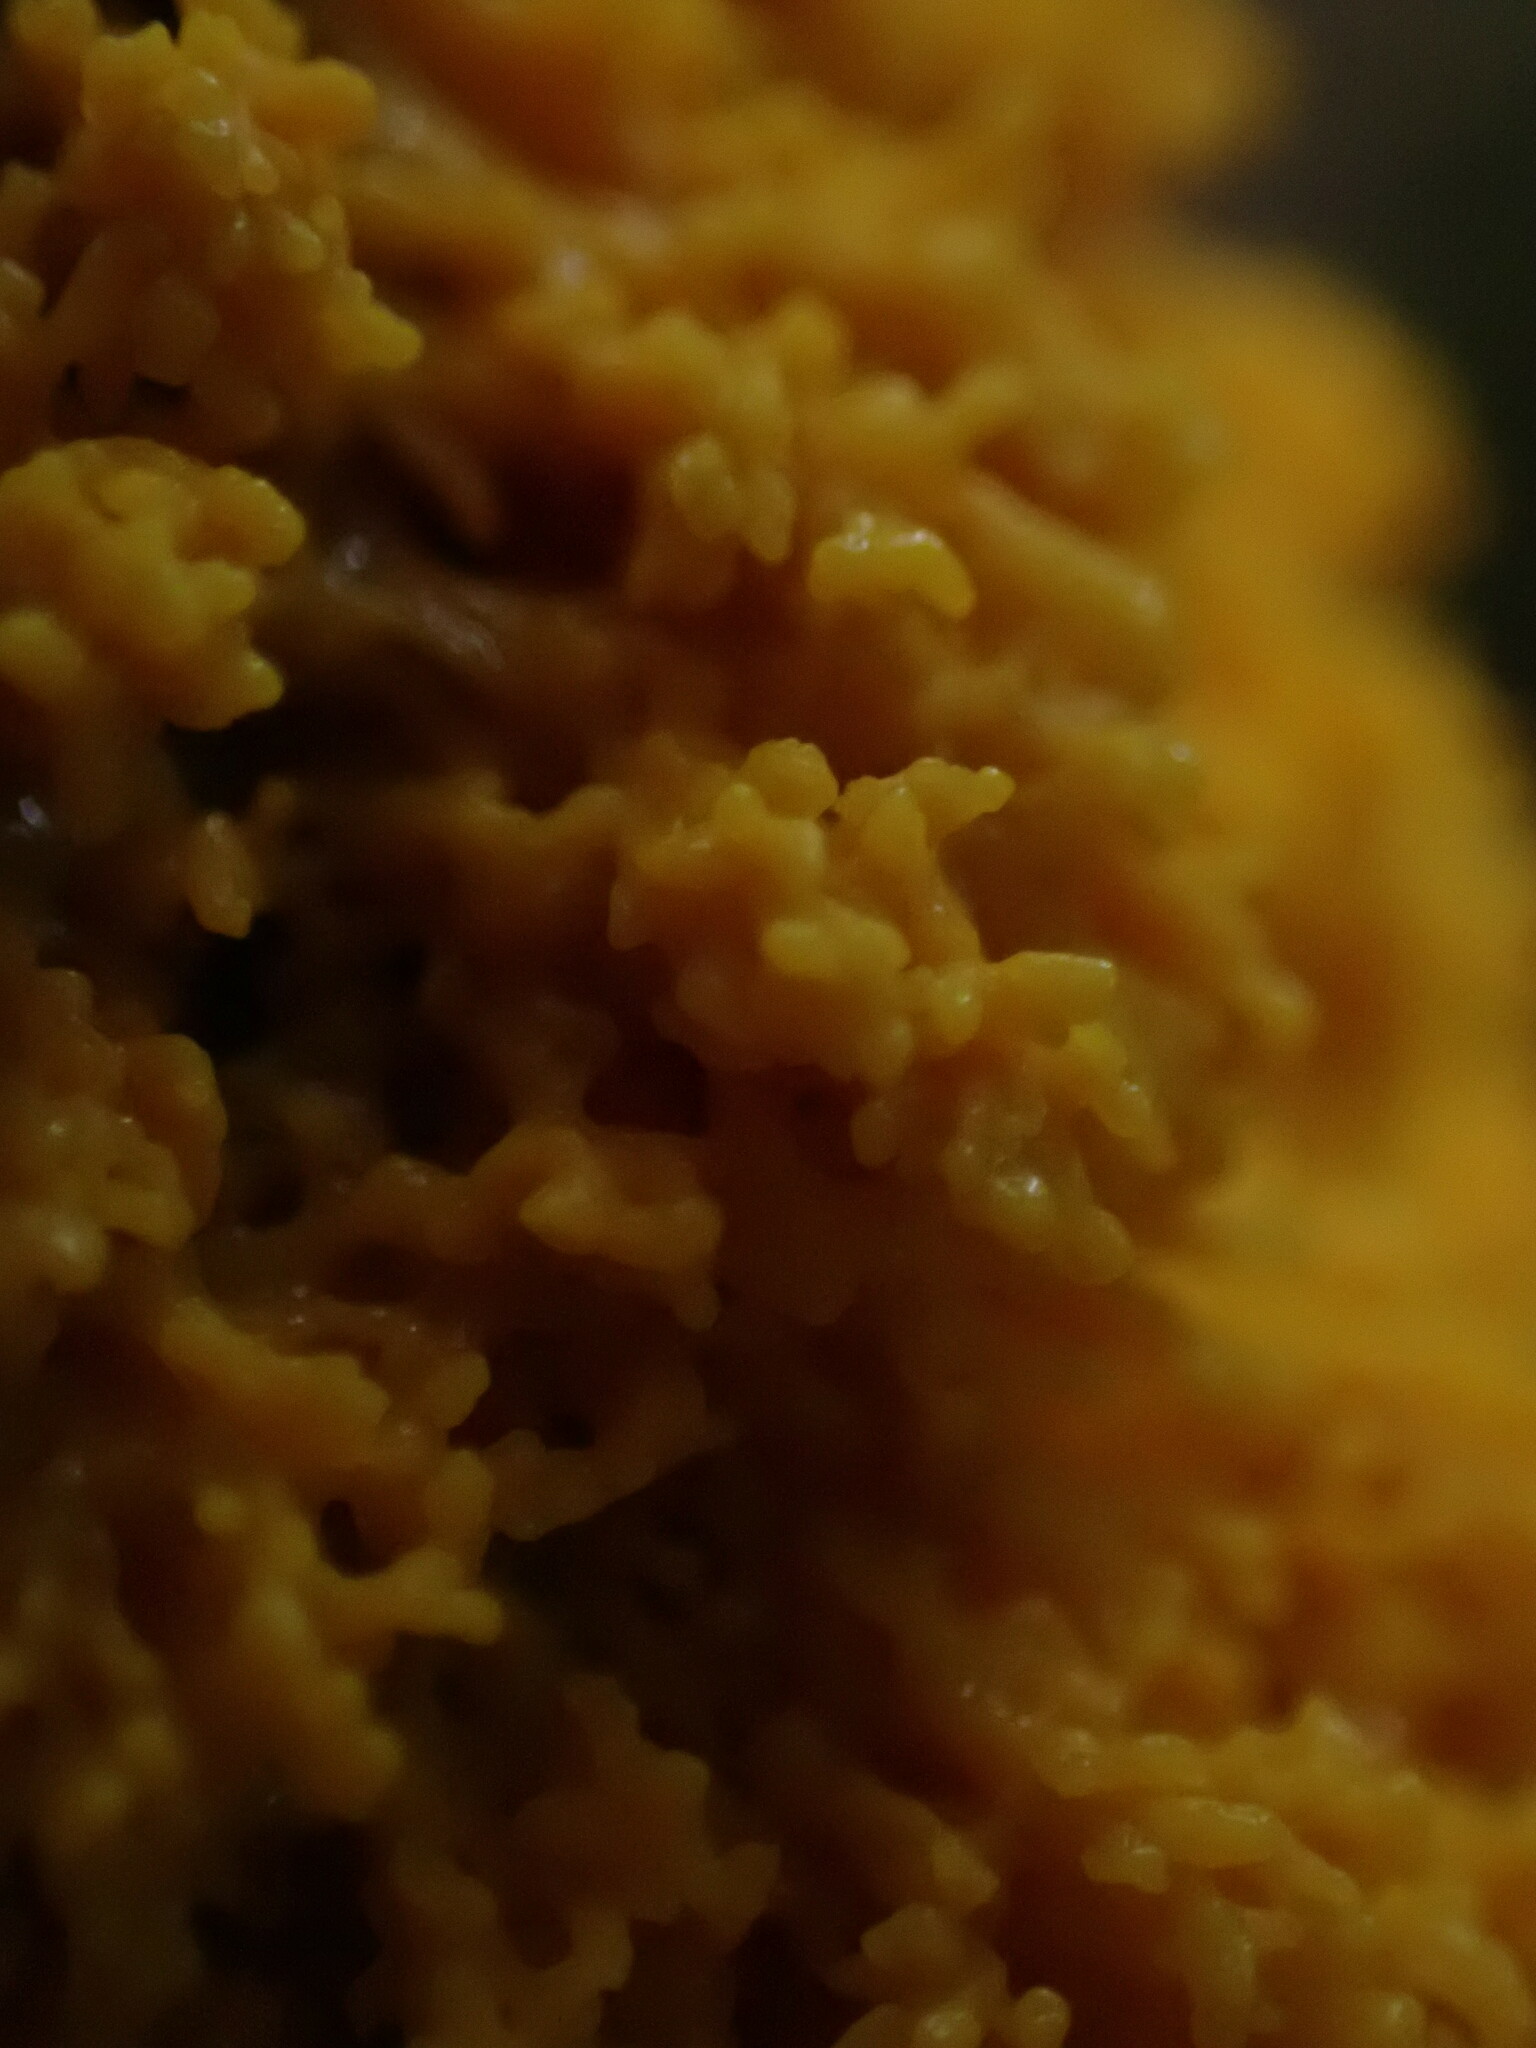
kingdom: Protozoa
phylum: Mycetozoa
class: Myxomycetes
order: Physarales
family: Physaraceae
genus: Fuligo
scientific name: Fuligo septica
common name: Dog vomit slime mold
